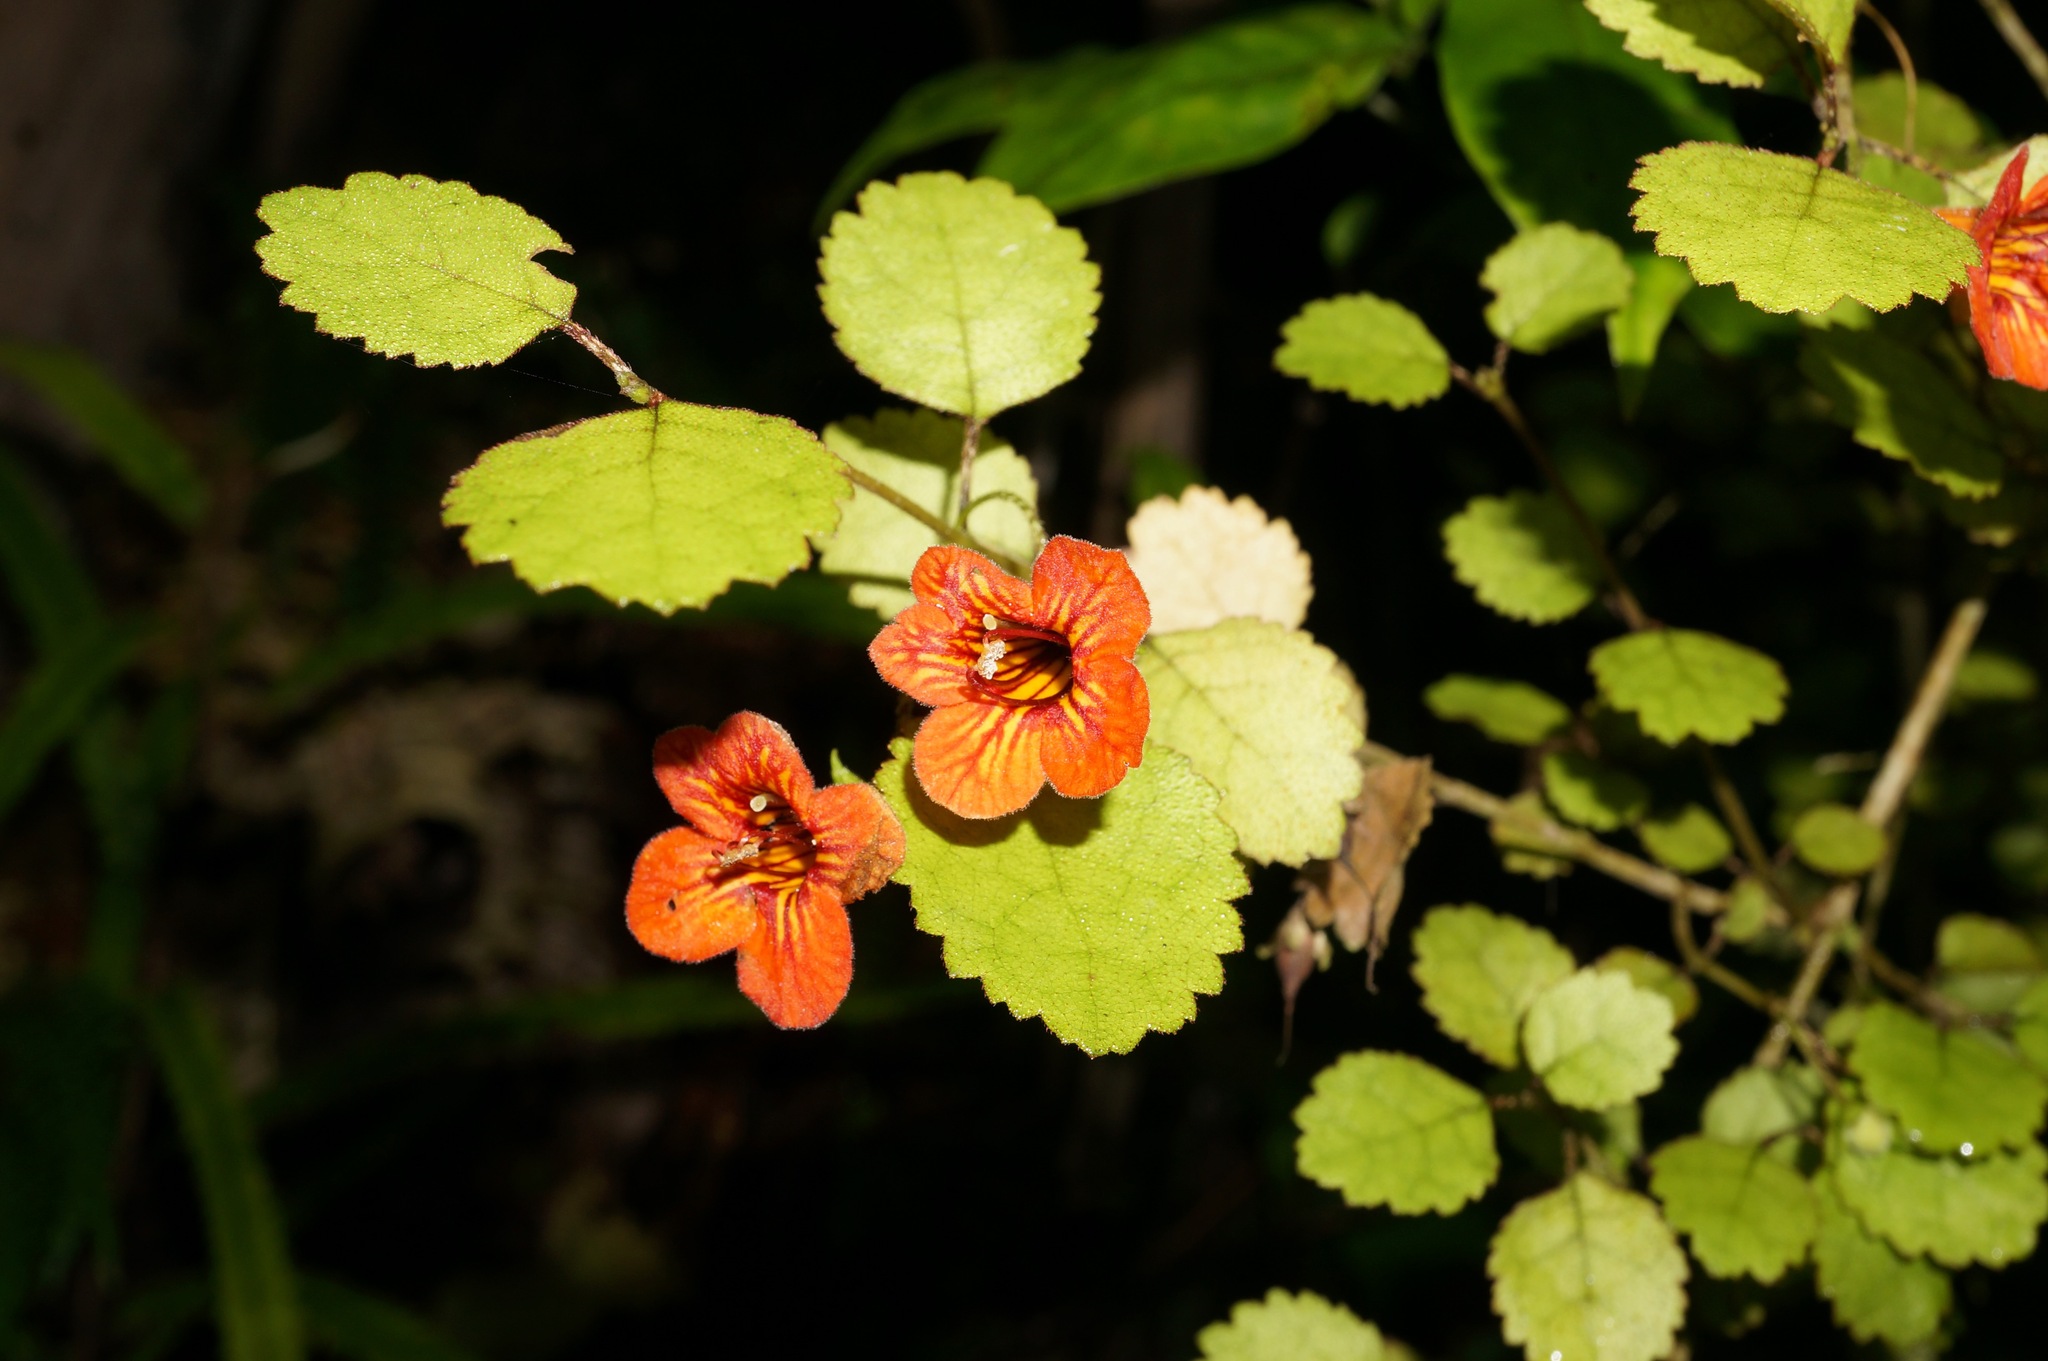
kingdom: Plantae
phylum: Tracheophyta
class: Magnoliopsida
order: Lamiales
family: Gesneriaceae
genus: Rhabdothamnus
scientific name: Rhabdothamnus solandri
